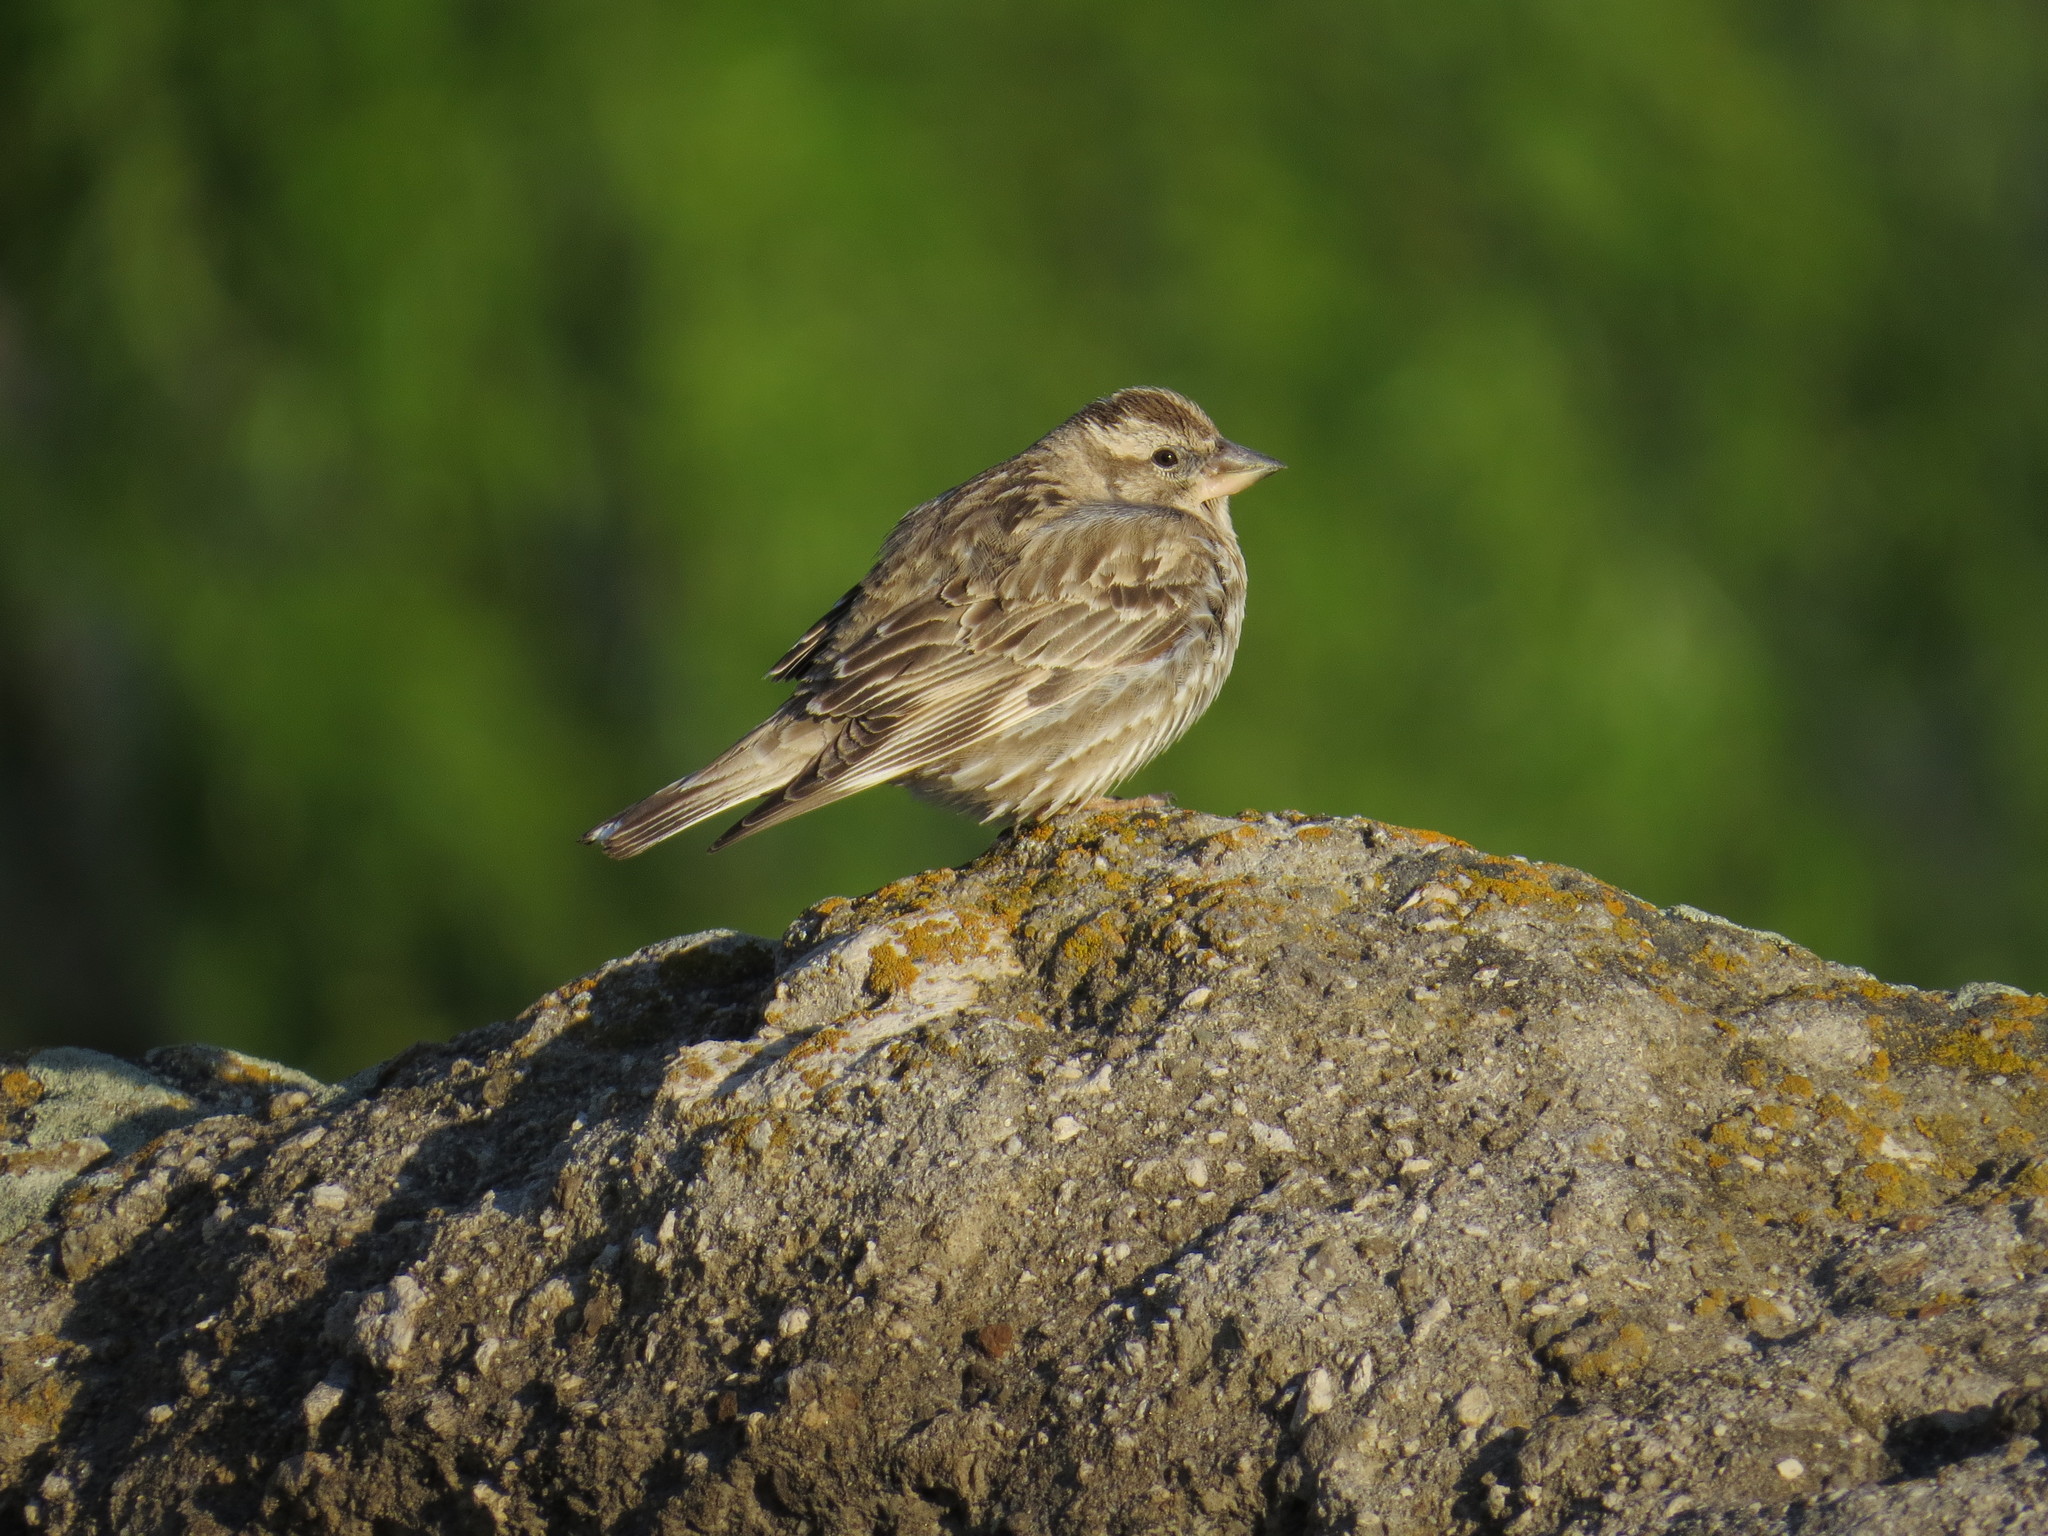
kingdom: Animalia
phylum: Chordata
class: Aves
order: Passeriformes
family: Passeridae
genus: Petronia
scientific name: Petronia petronia
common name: Rock sparrow
